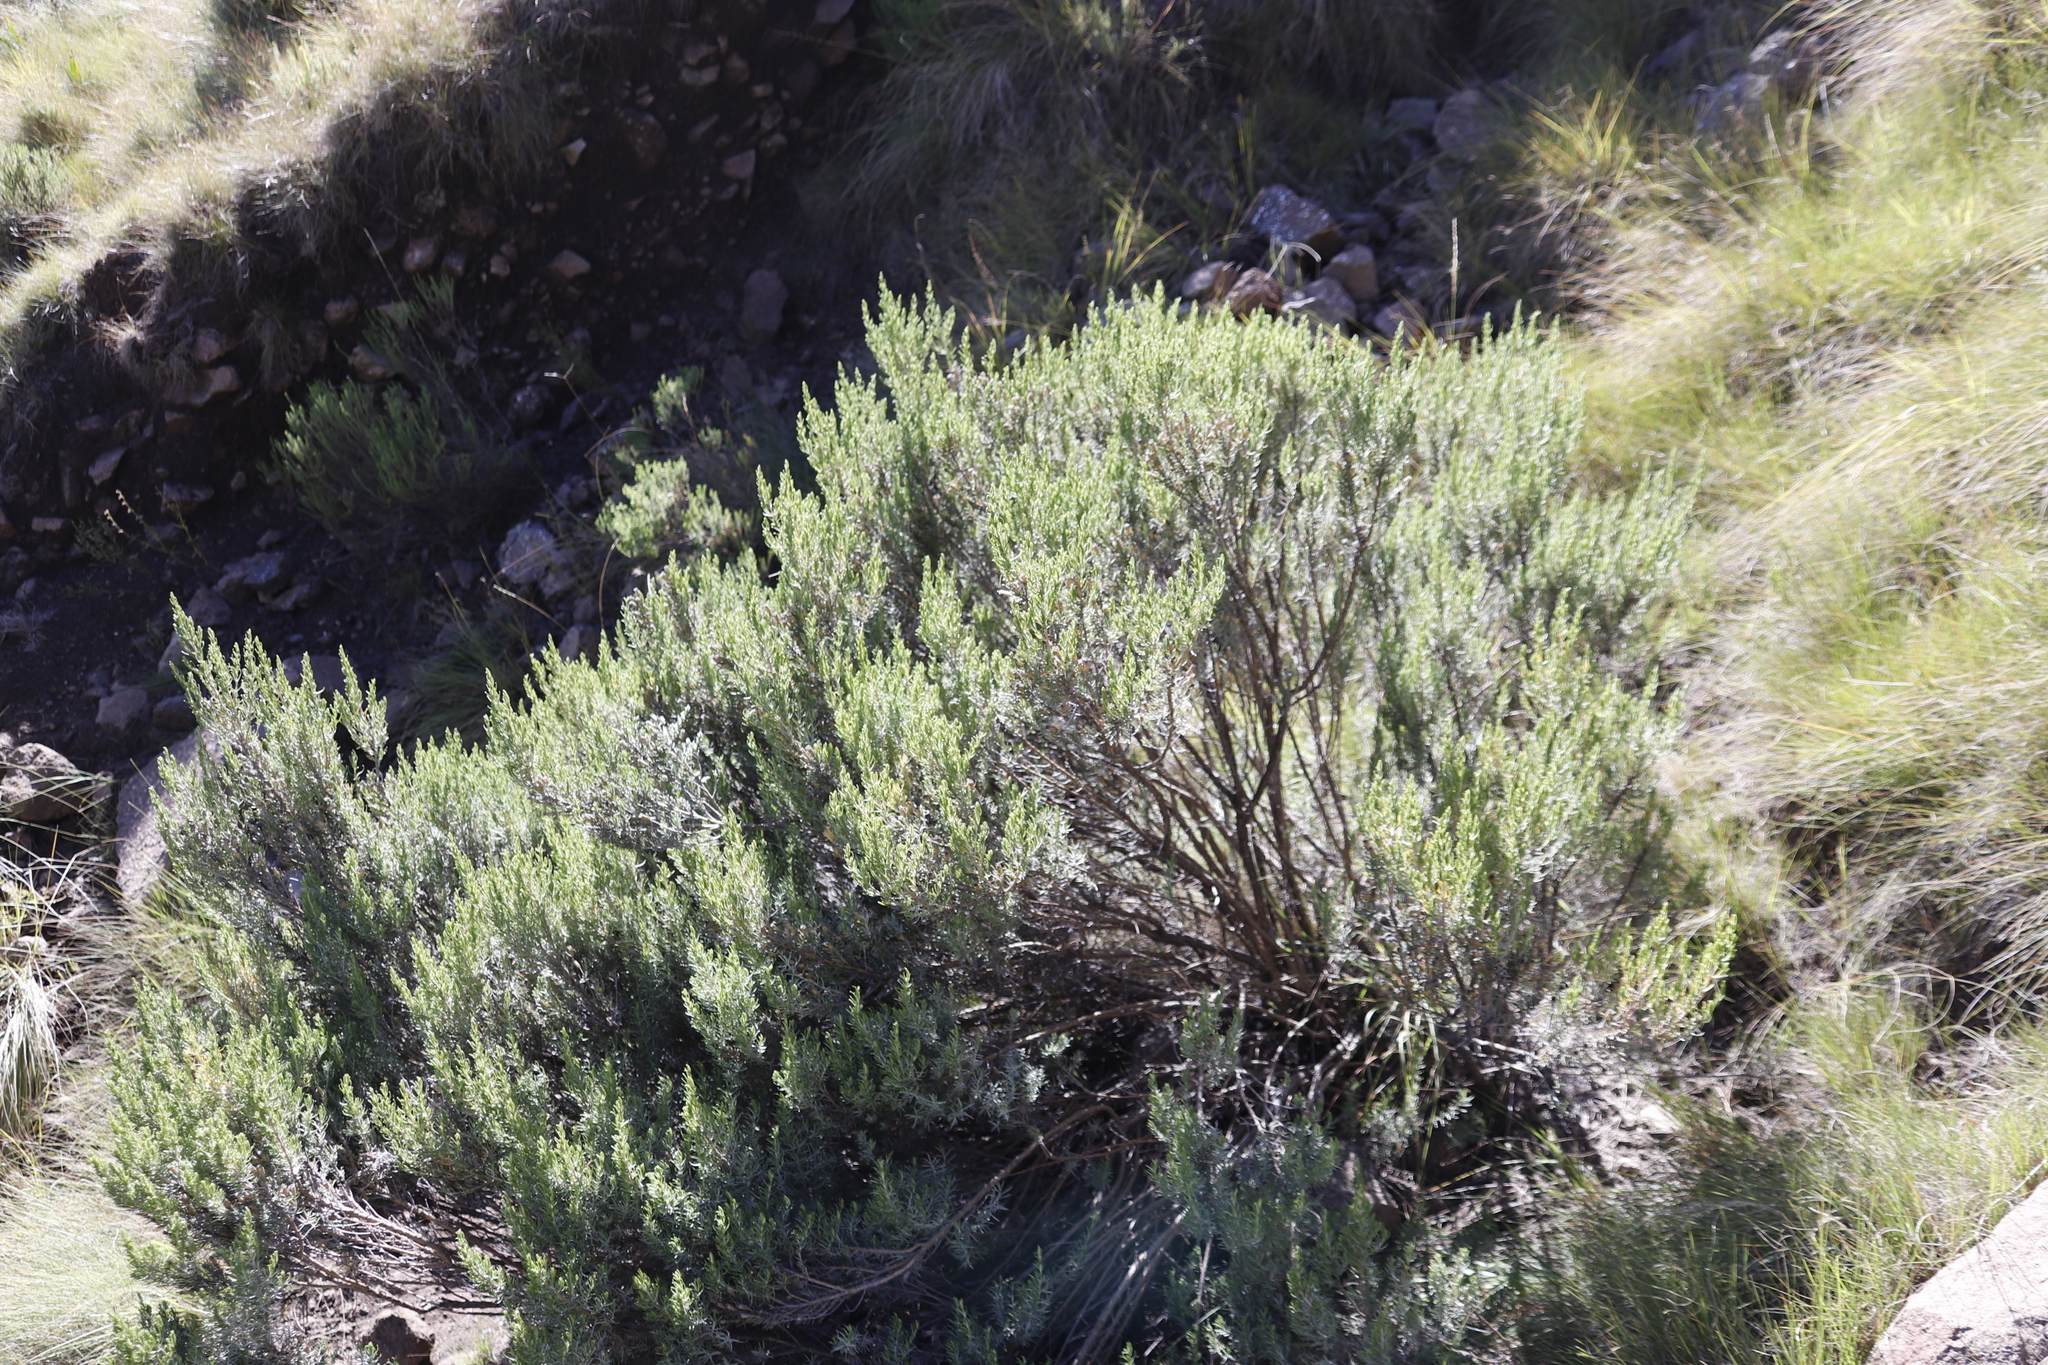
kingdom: Plantae
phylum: Tracheophyta
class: Magnoliopsida
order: Asterales
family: Asteraceae
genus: Dicerothamnus
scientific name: Dicerothamnus rhinocerotis
